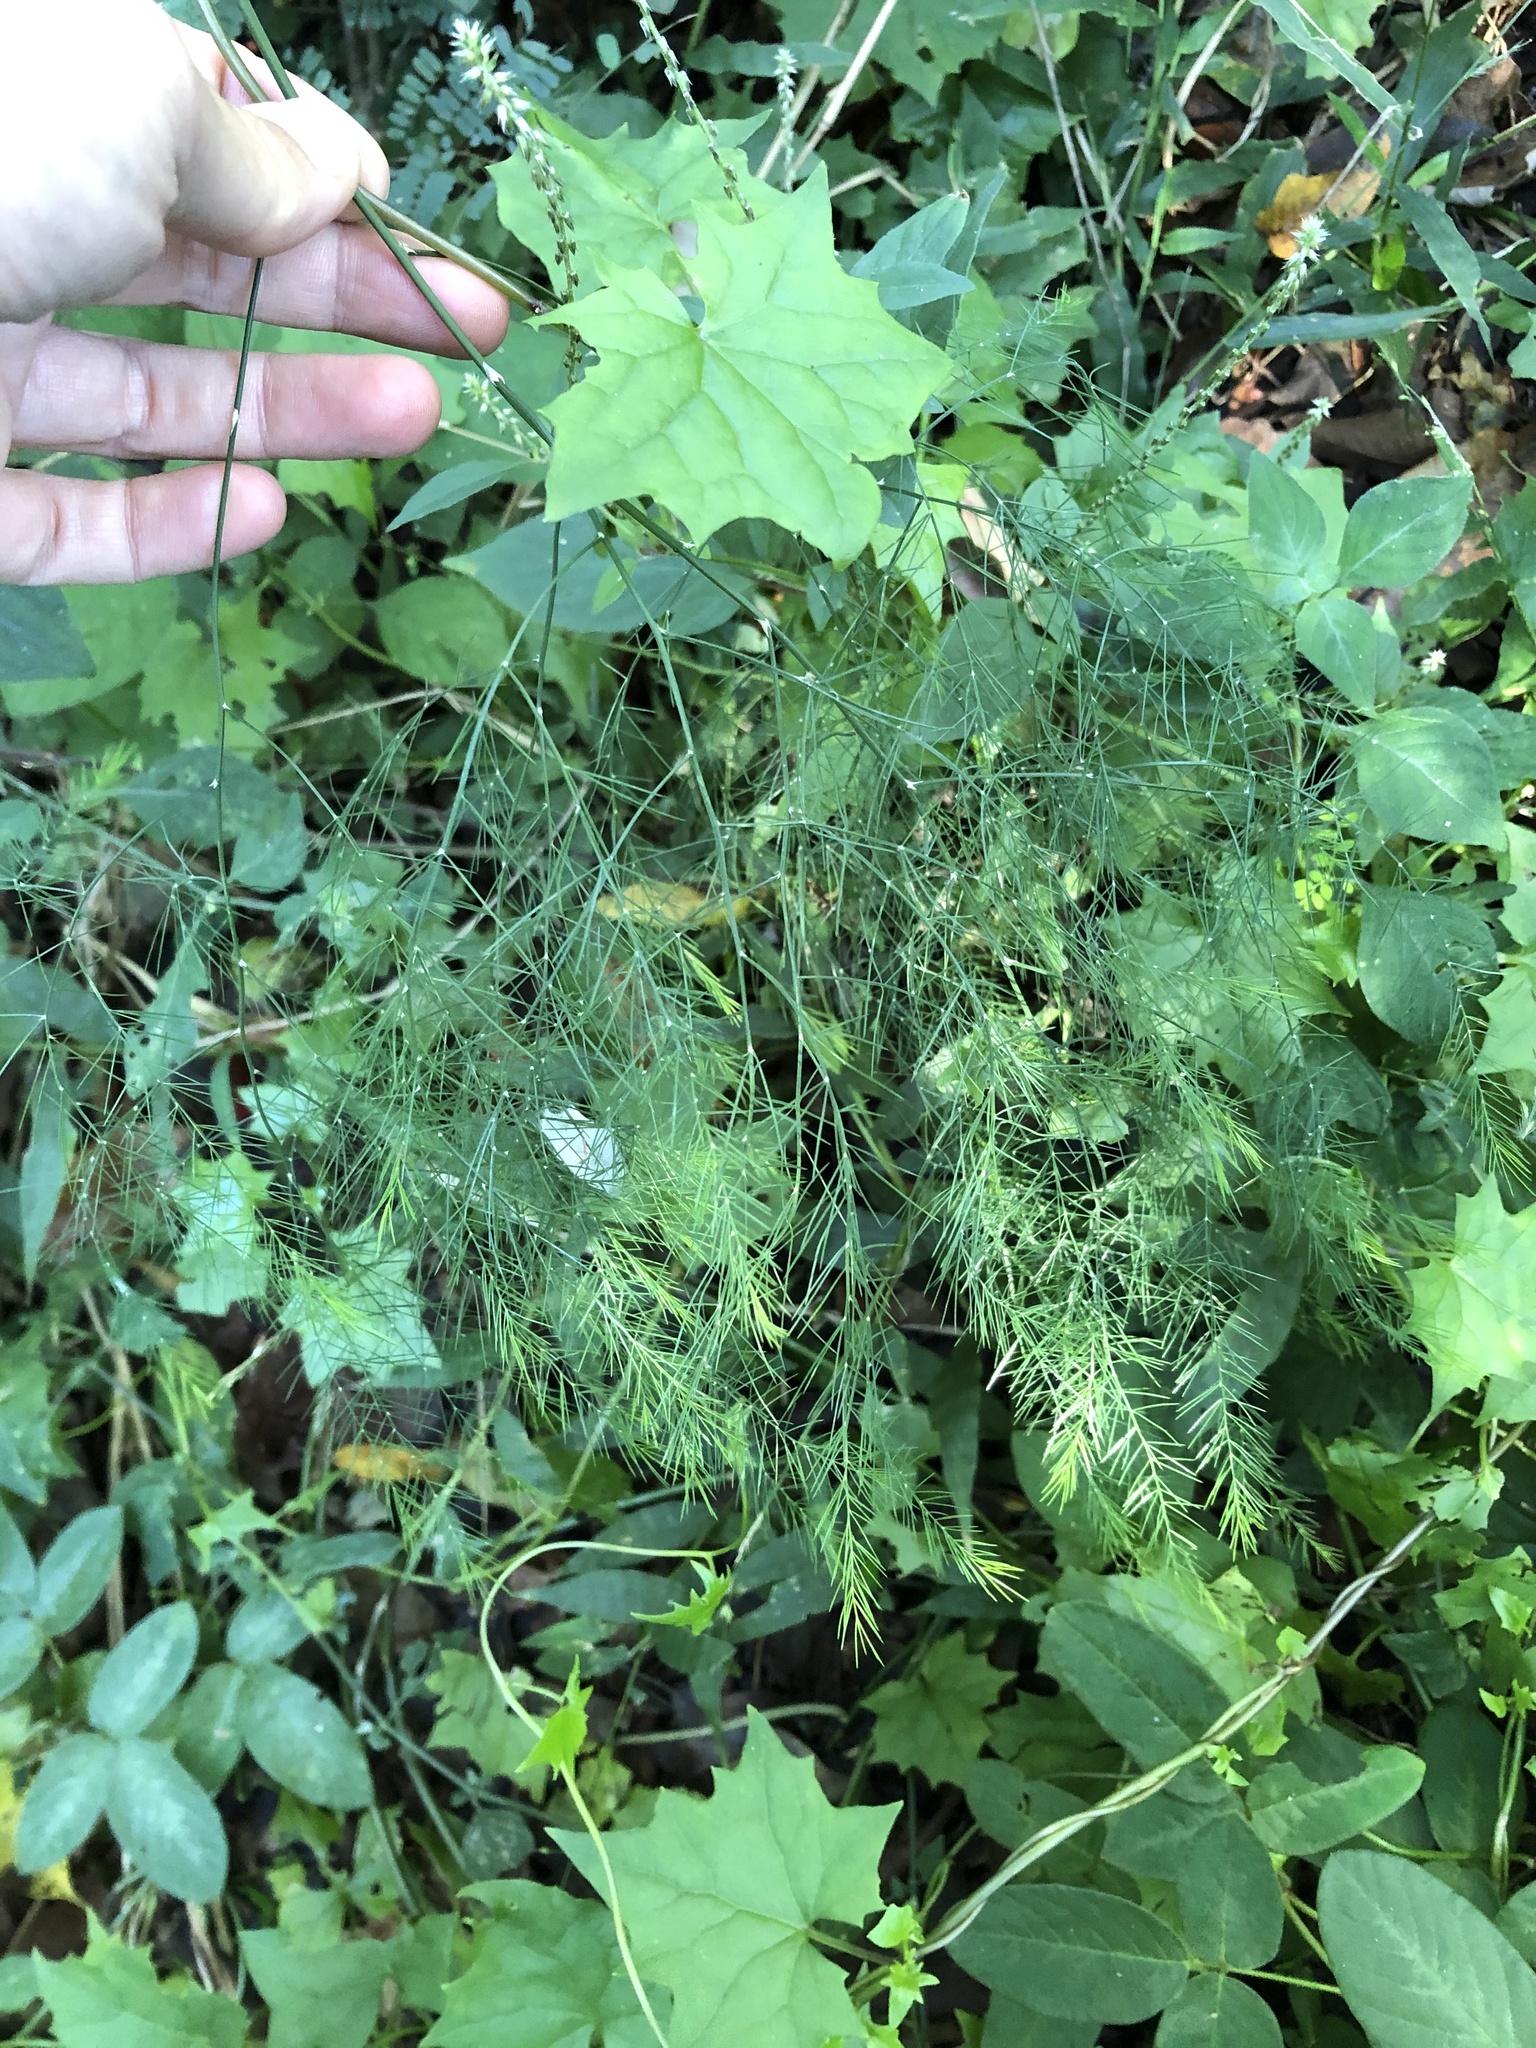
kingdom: Plantae
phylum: Tracheophyta
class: Liliopsida
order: Asparagales
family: Asparagaceae
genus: Asparagus
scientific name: Asparagus virgatus
